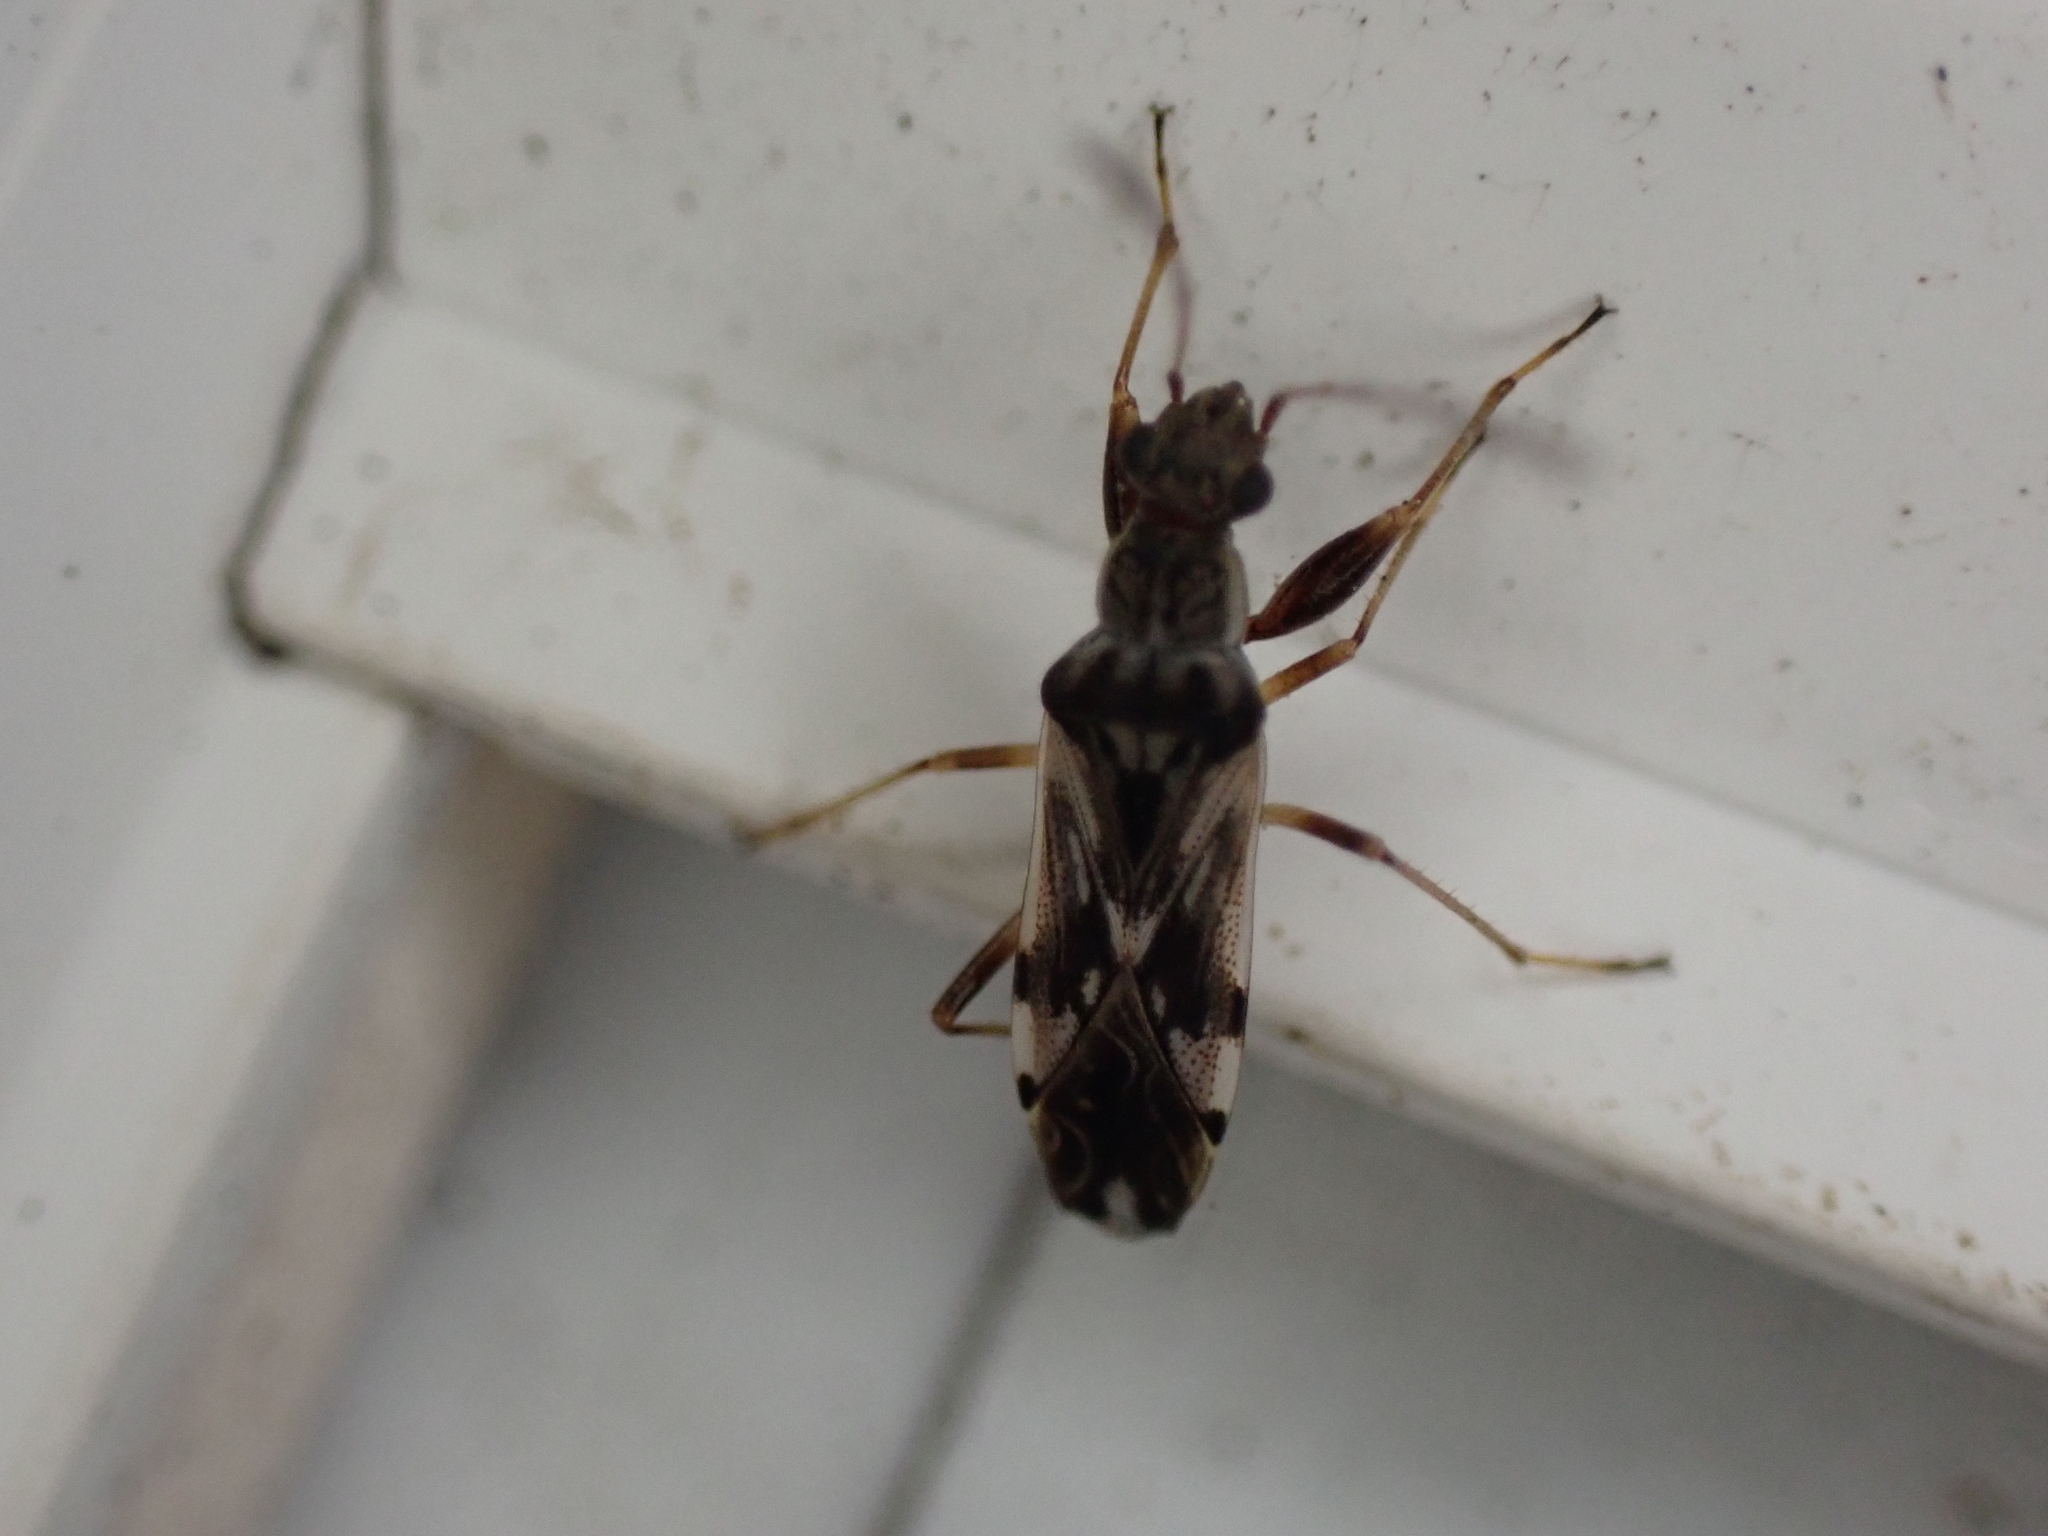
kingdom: Animalia
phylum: Arthropoda
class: Insecta
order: Hemiptera
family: Rhyparochromidae
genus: Neopamera
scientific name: Neopamera bilobata
